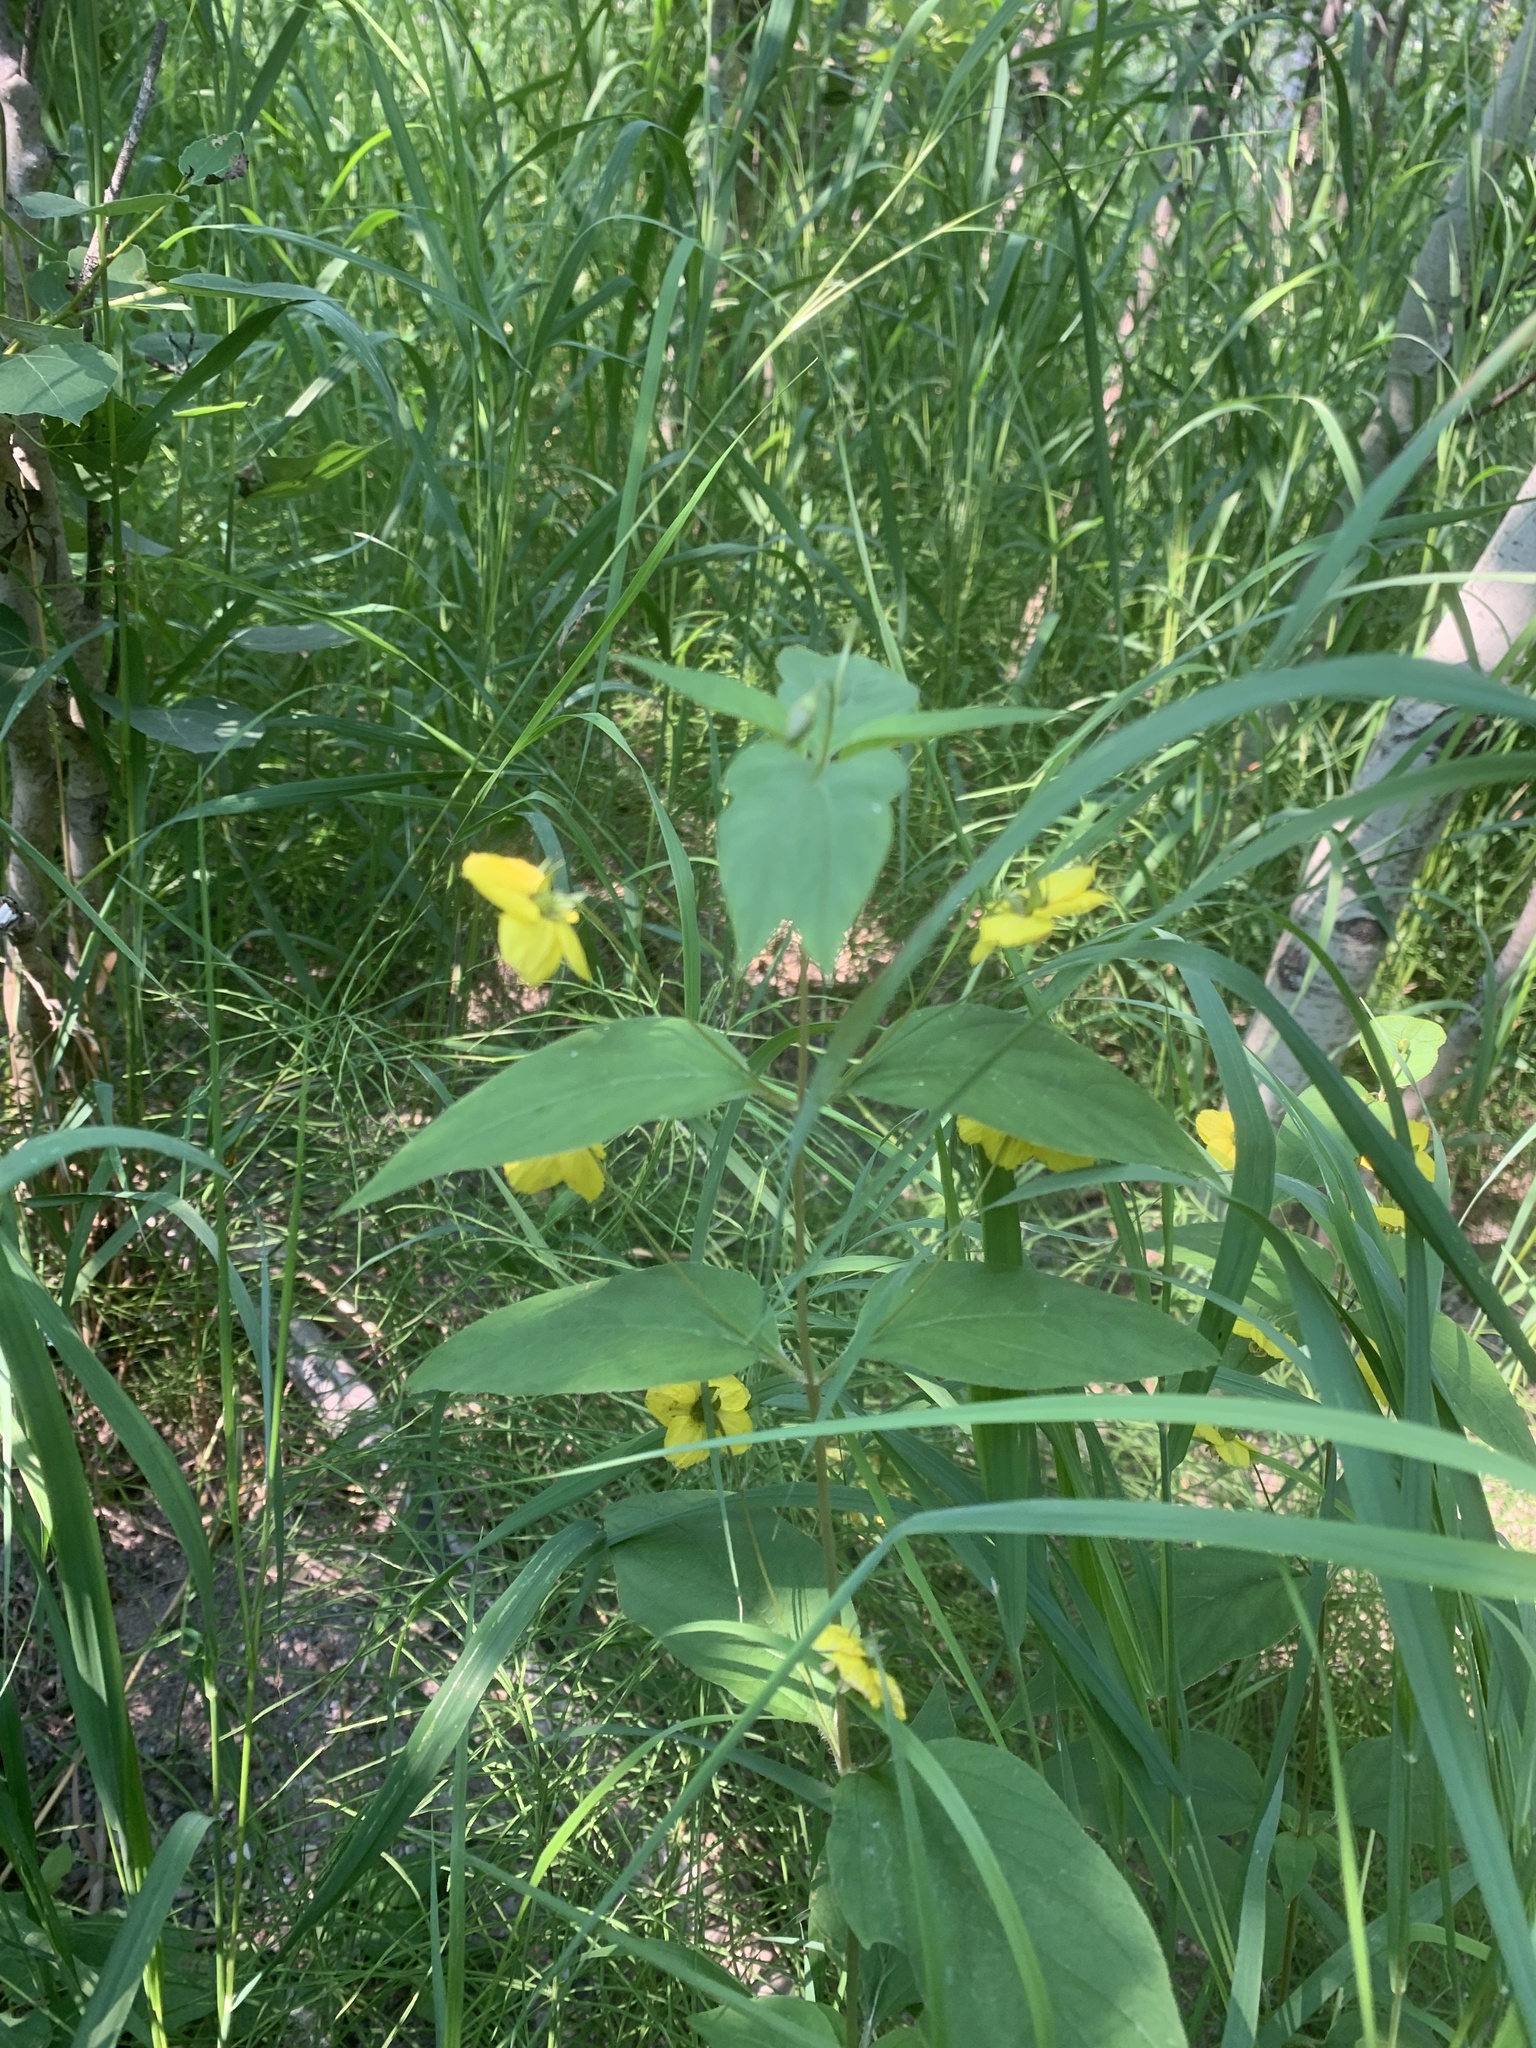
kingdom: Plantae
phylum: Tracheophyta
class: Magnoliopsida
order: Ericales
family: Primulaceae
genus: Lysimachia
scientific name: Lysimachia ciliata
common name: Fringed loosestrife
